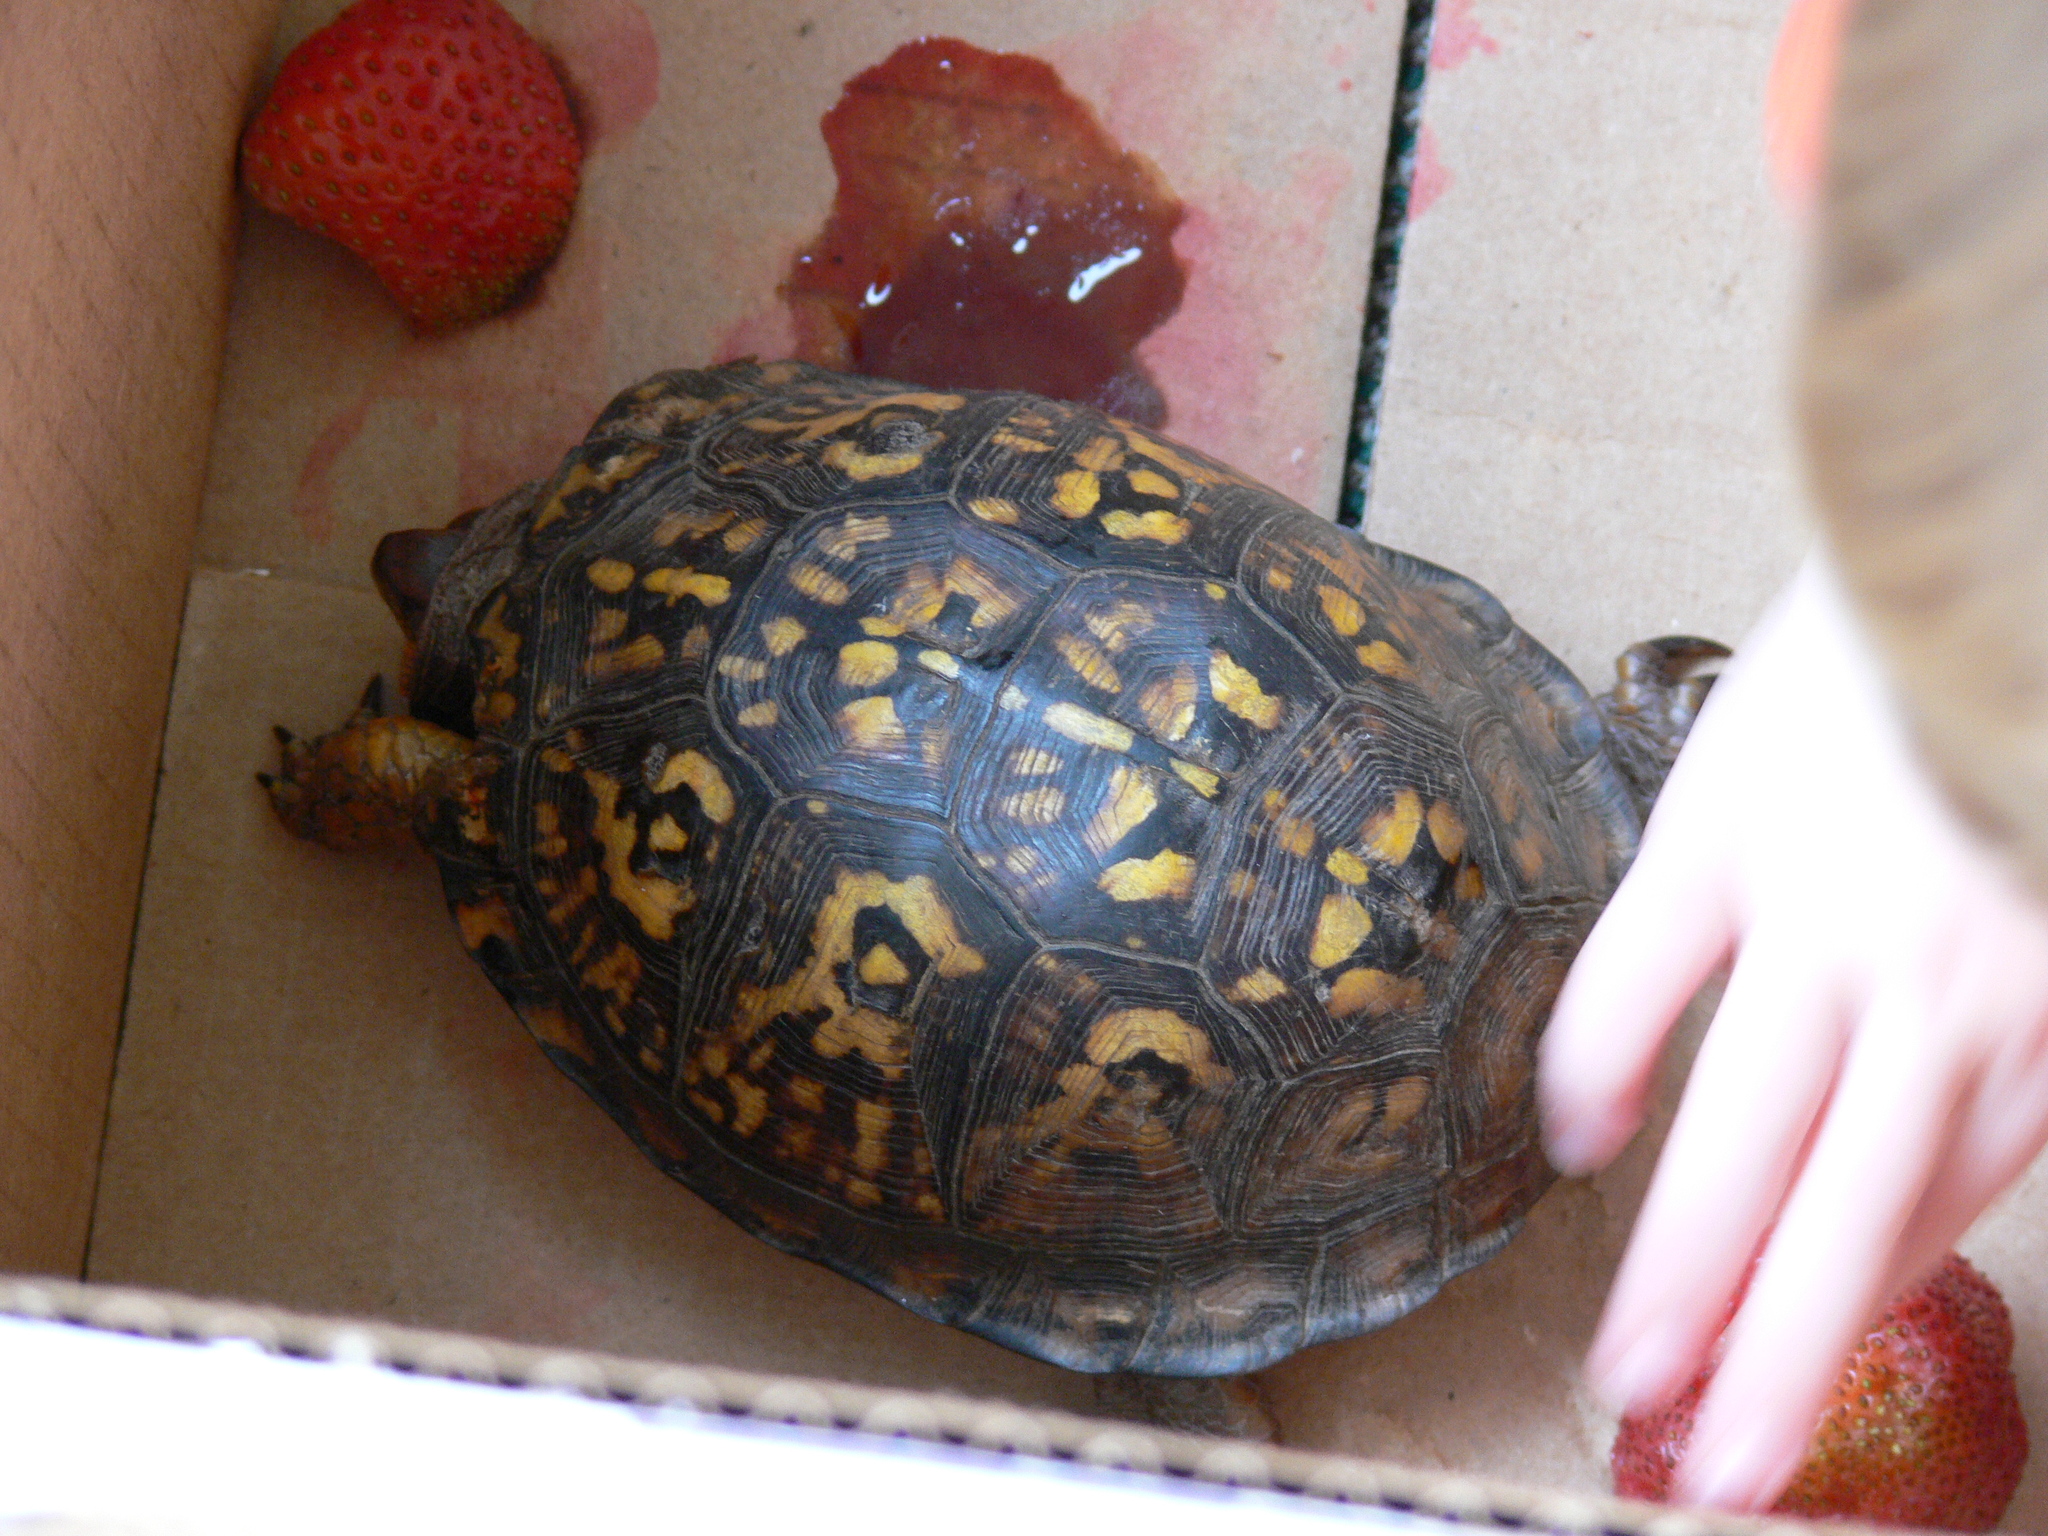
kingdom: Animalia
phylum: Chordata
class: Testudines
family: Emydidae
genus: Terrapene
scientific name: Terrapene carolina
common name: Common box turtle
